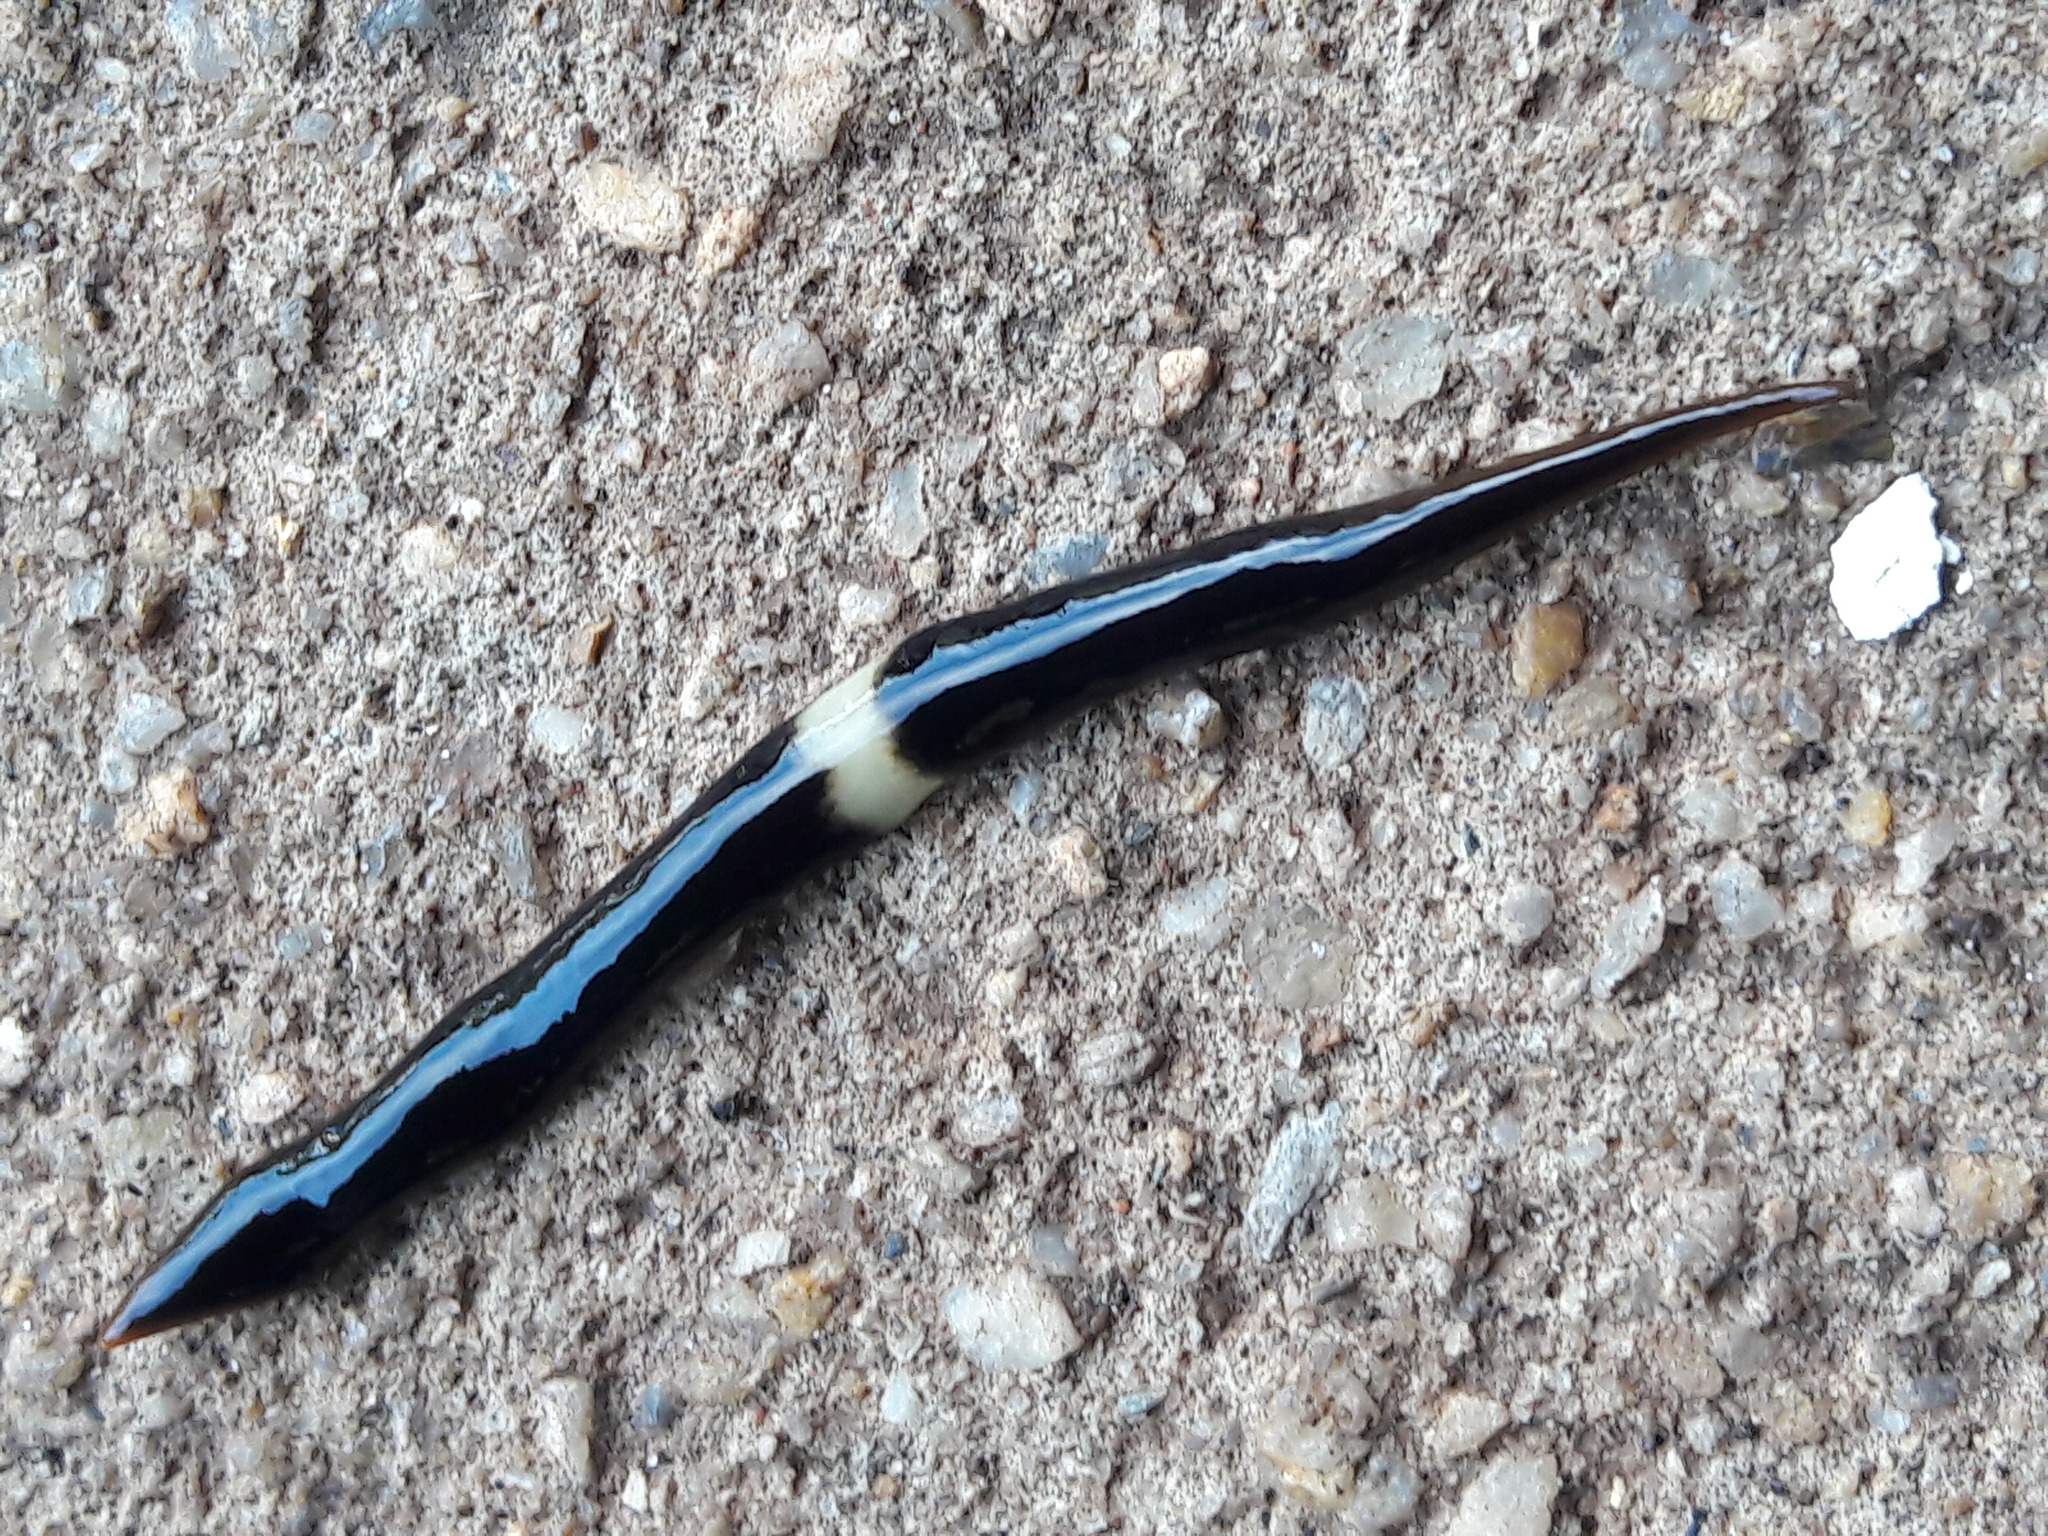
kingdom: Animalia
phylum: Platyhelminthes
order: Tricladida
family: Geoplanidae
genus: Paraba
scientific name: Paraba pankaru
